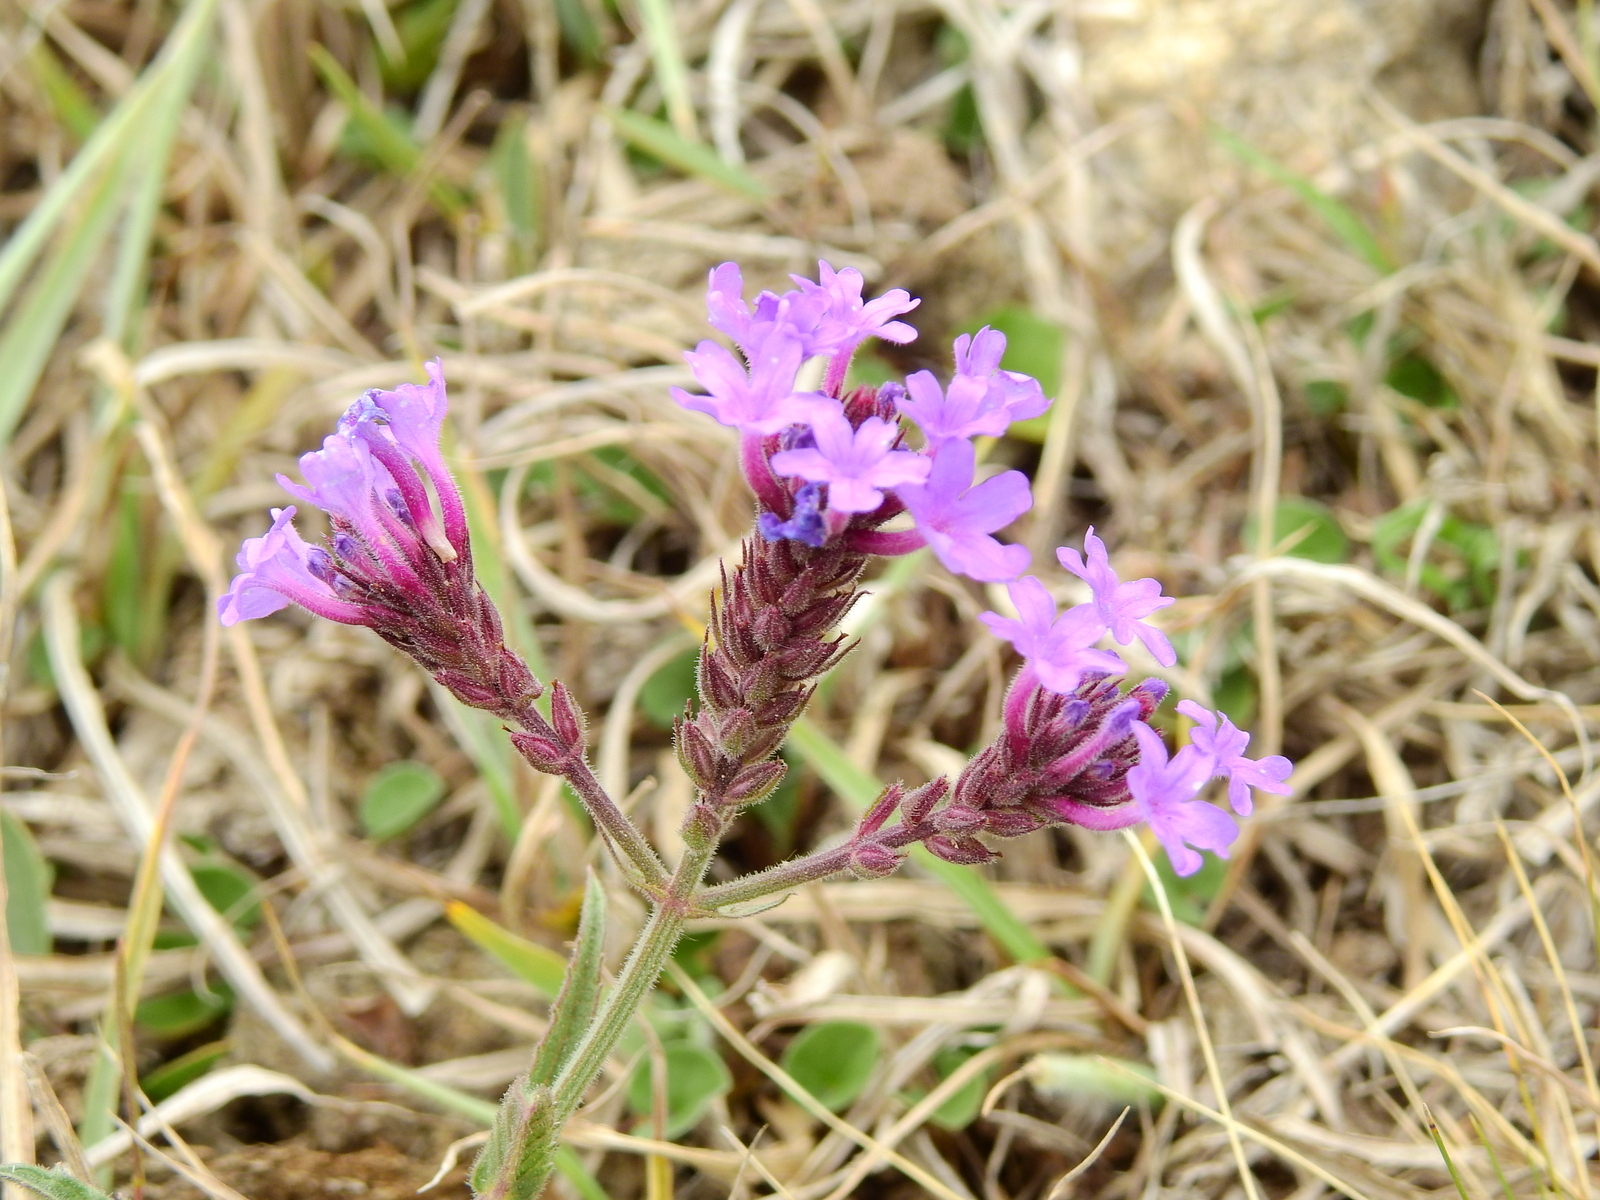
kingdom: Plantae
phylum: Tracheophyta
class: Magnoliopsida
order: Lamiales
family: Verbenaceae
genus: Verbena
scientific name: Verbena intermedia
